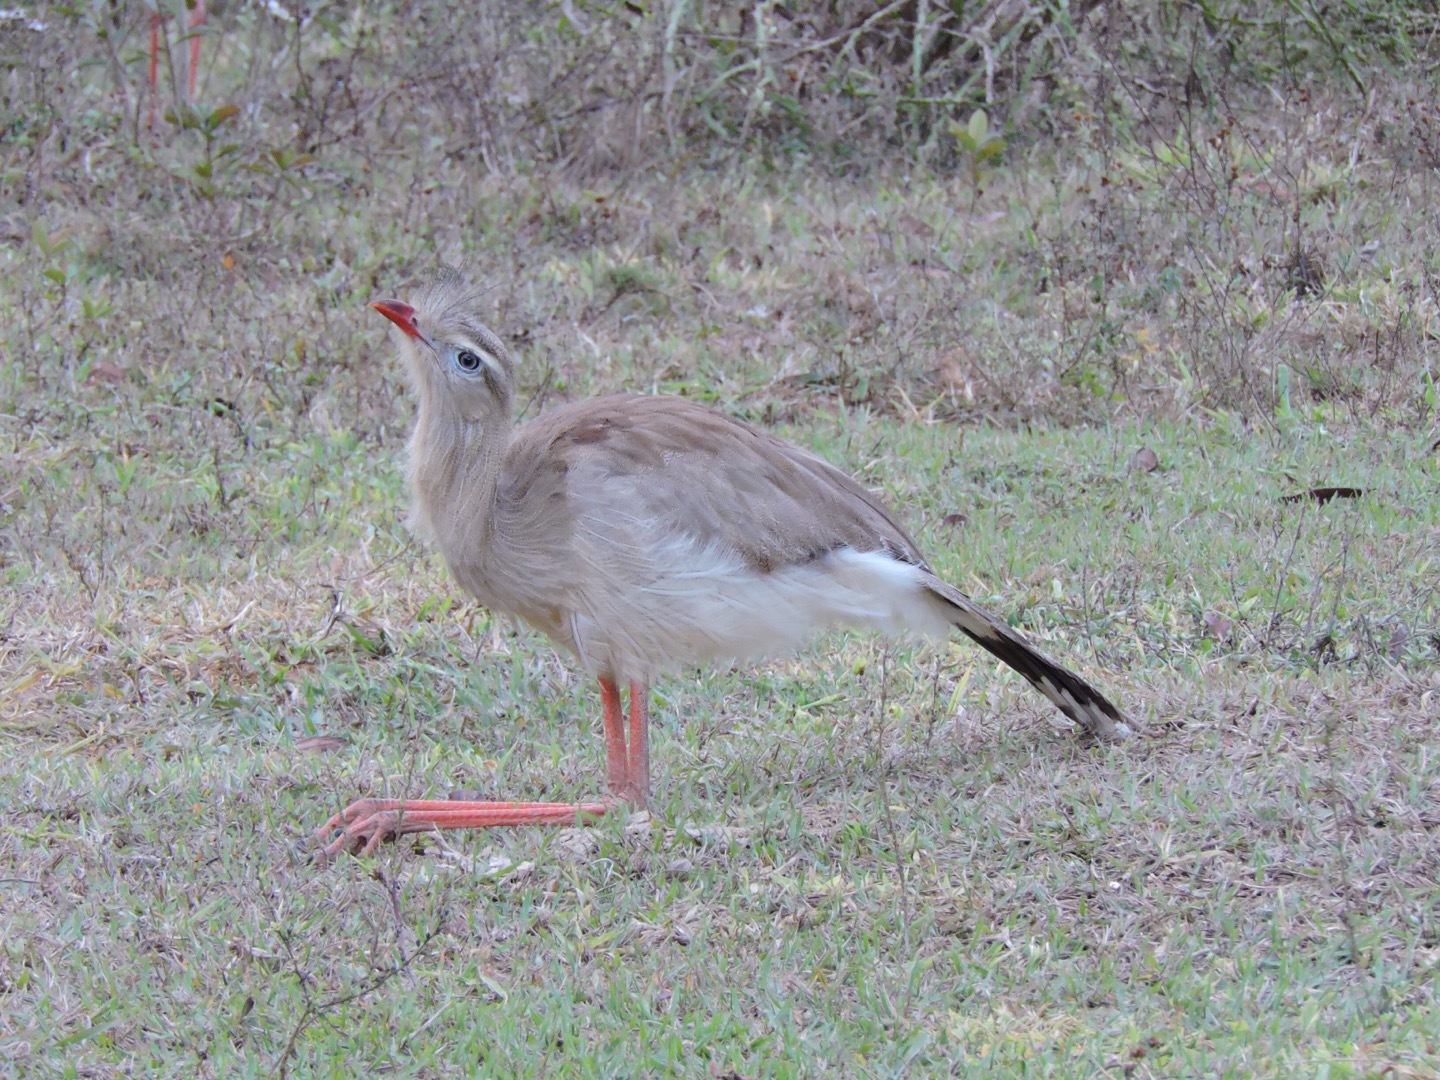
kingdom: Animalia
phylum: Chordata
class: Aves
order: Cariamiformes
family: Cariamidae
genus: Cariama
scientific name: Cariama cristata
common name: Red-legged seriema
